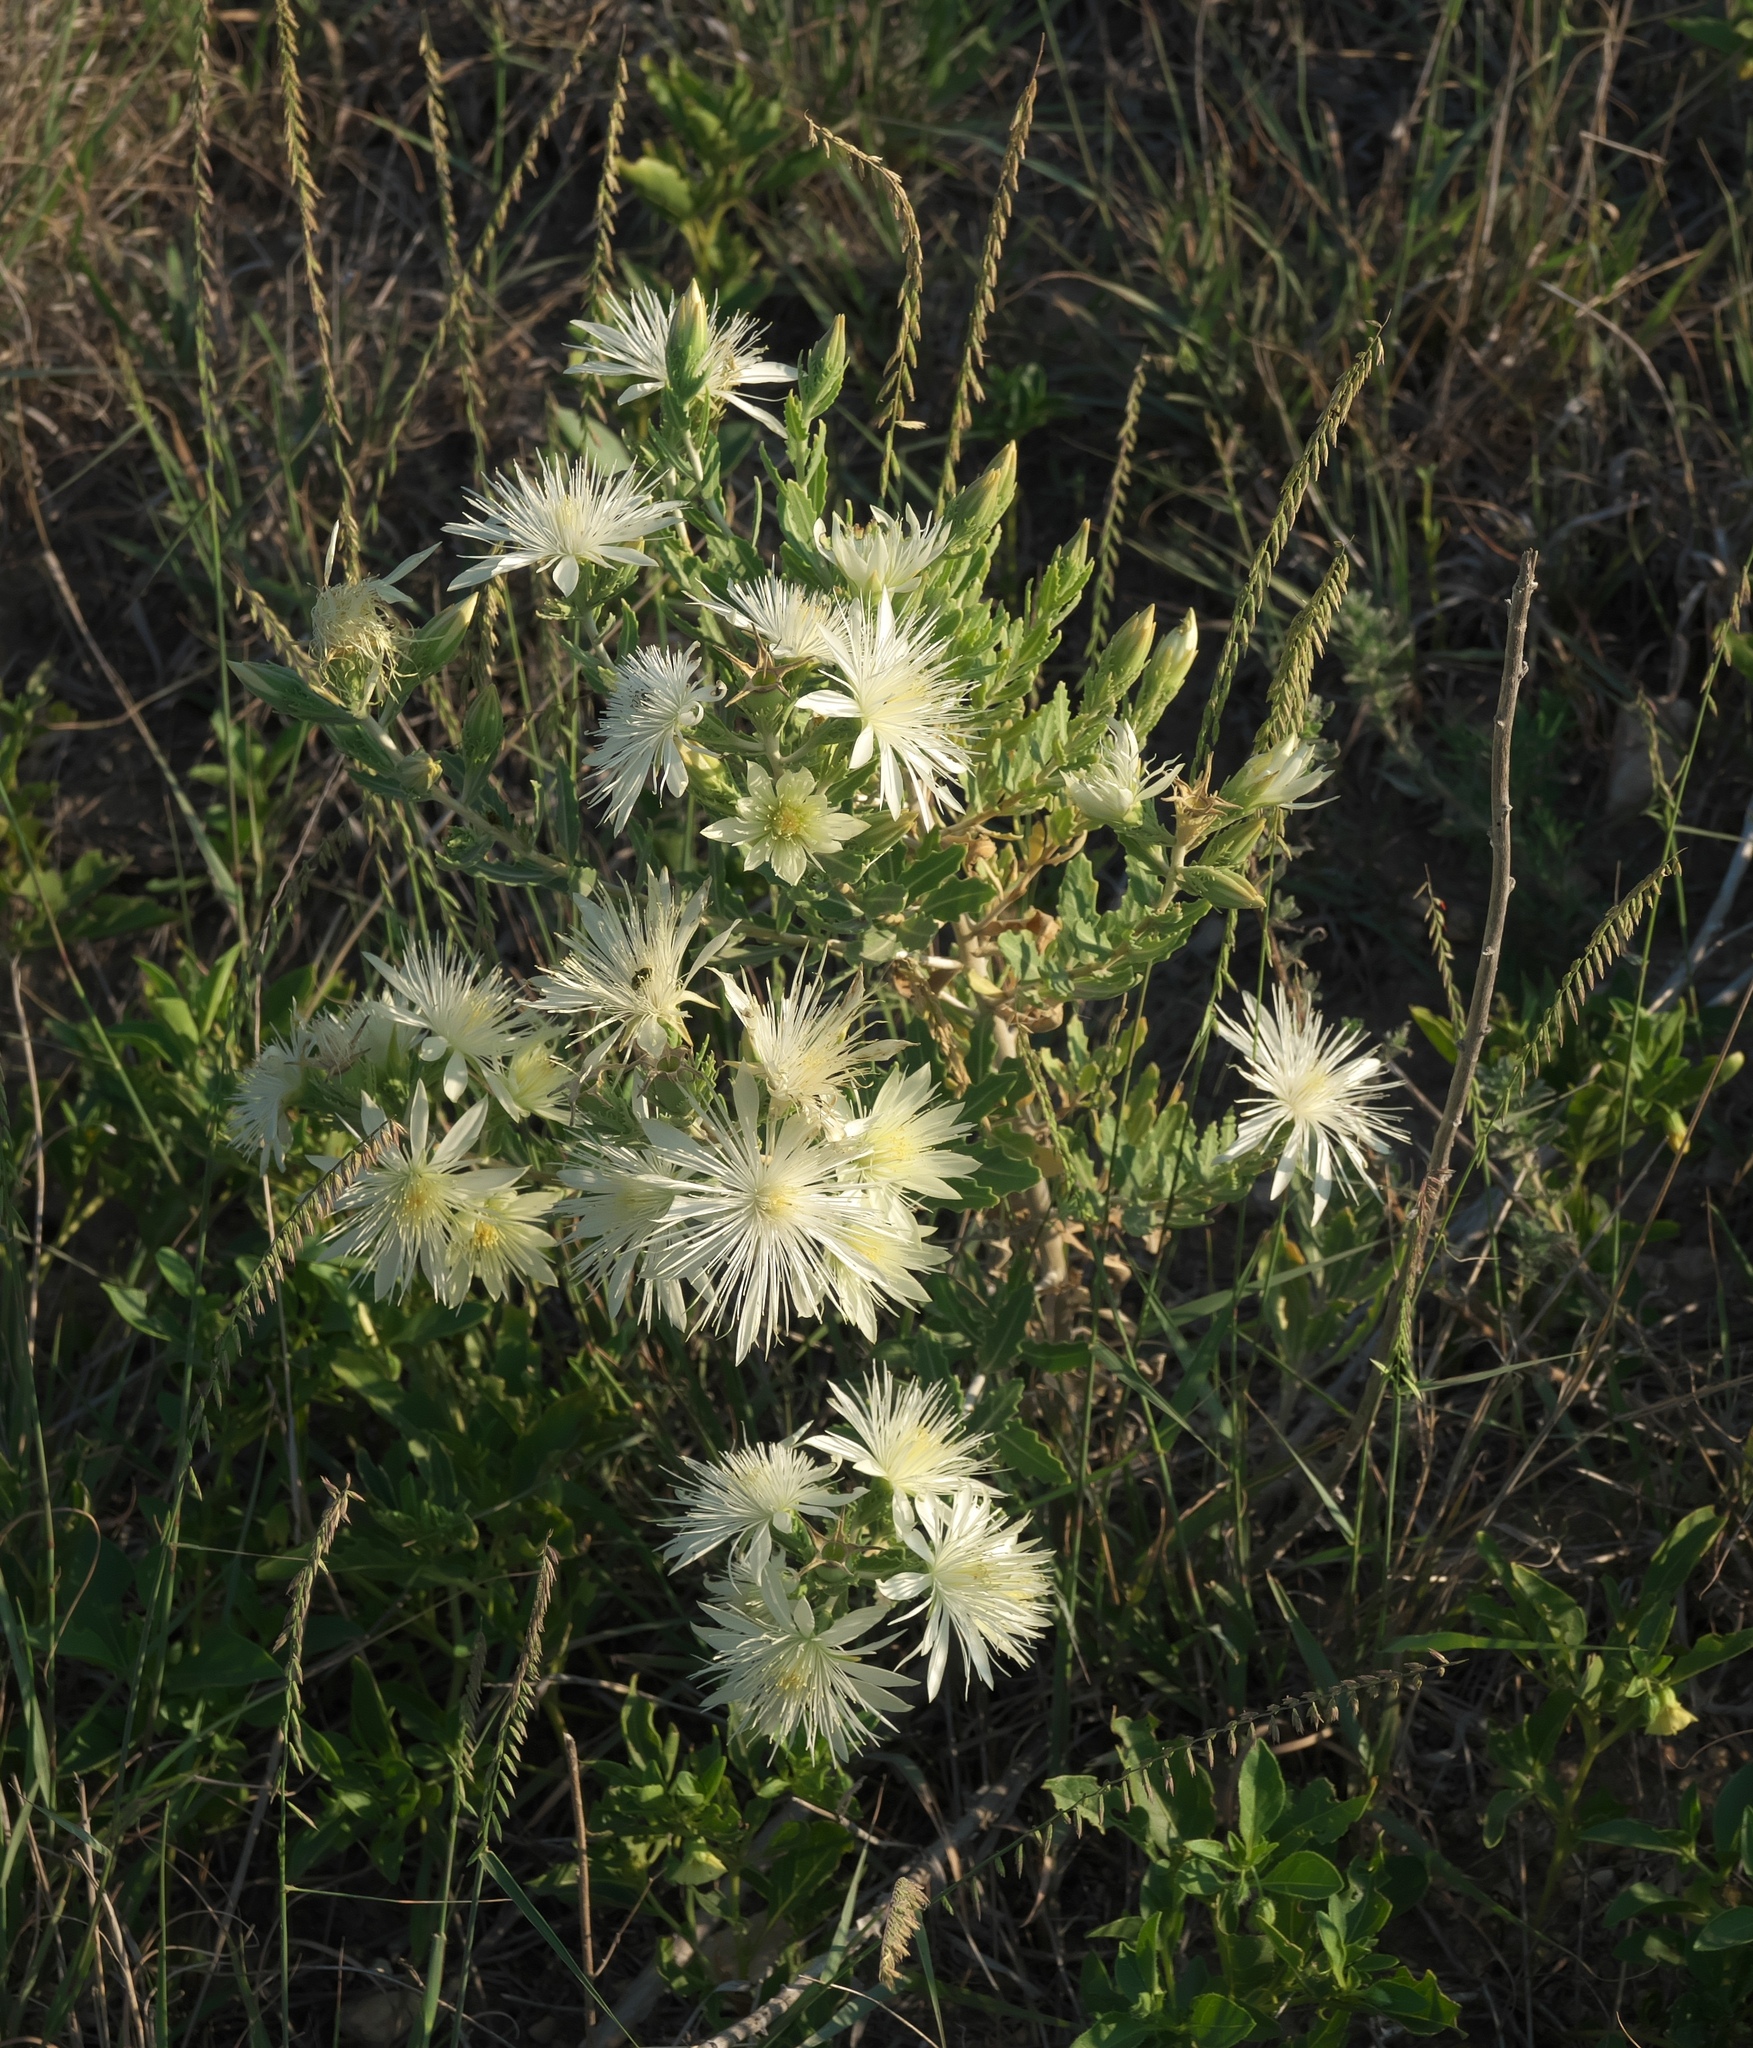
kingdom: Plantae
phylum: Tracheophyta
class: Magnoliopsida
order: Cornales
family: Loasaceae
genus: Mentzelia
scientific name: Mentzelia nuda
